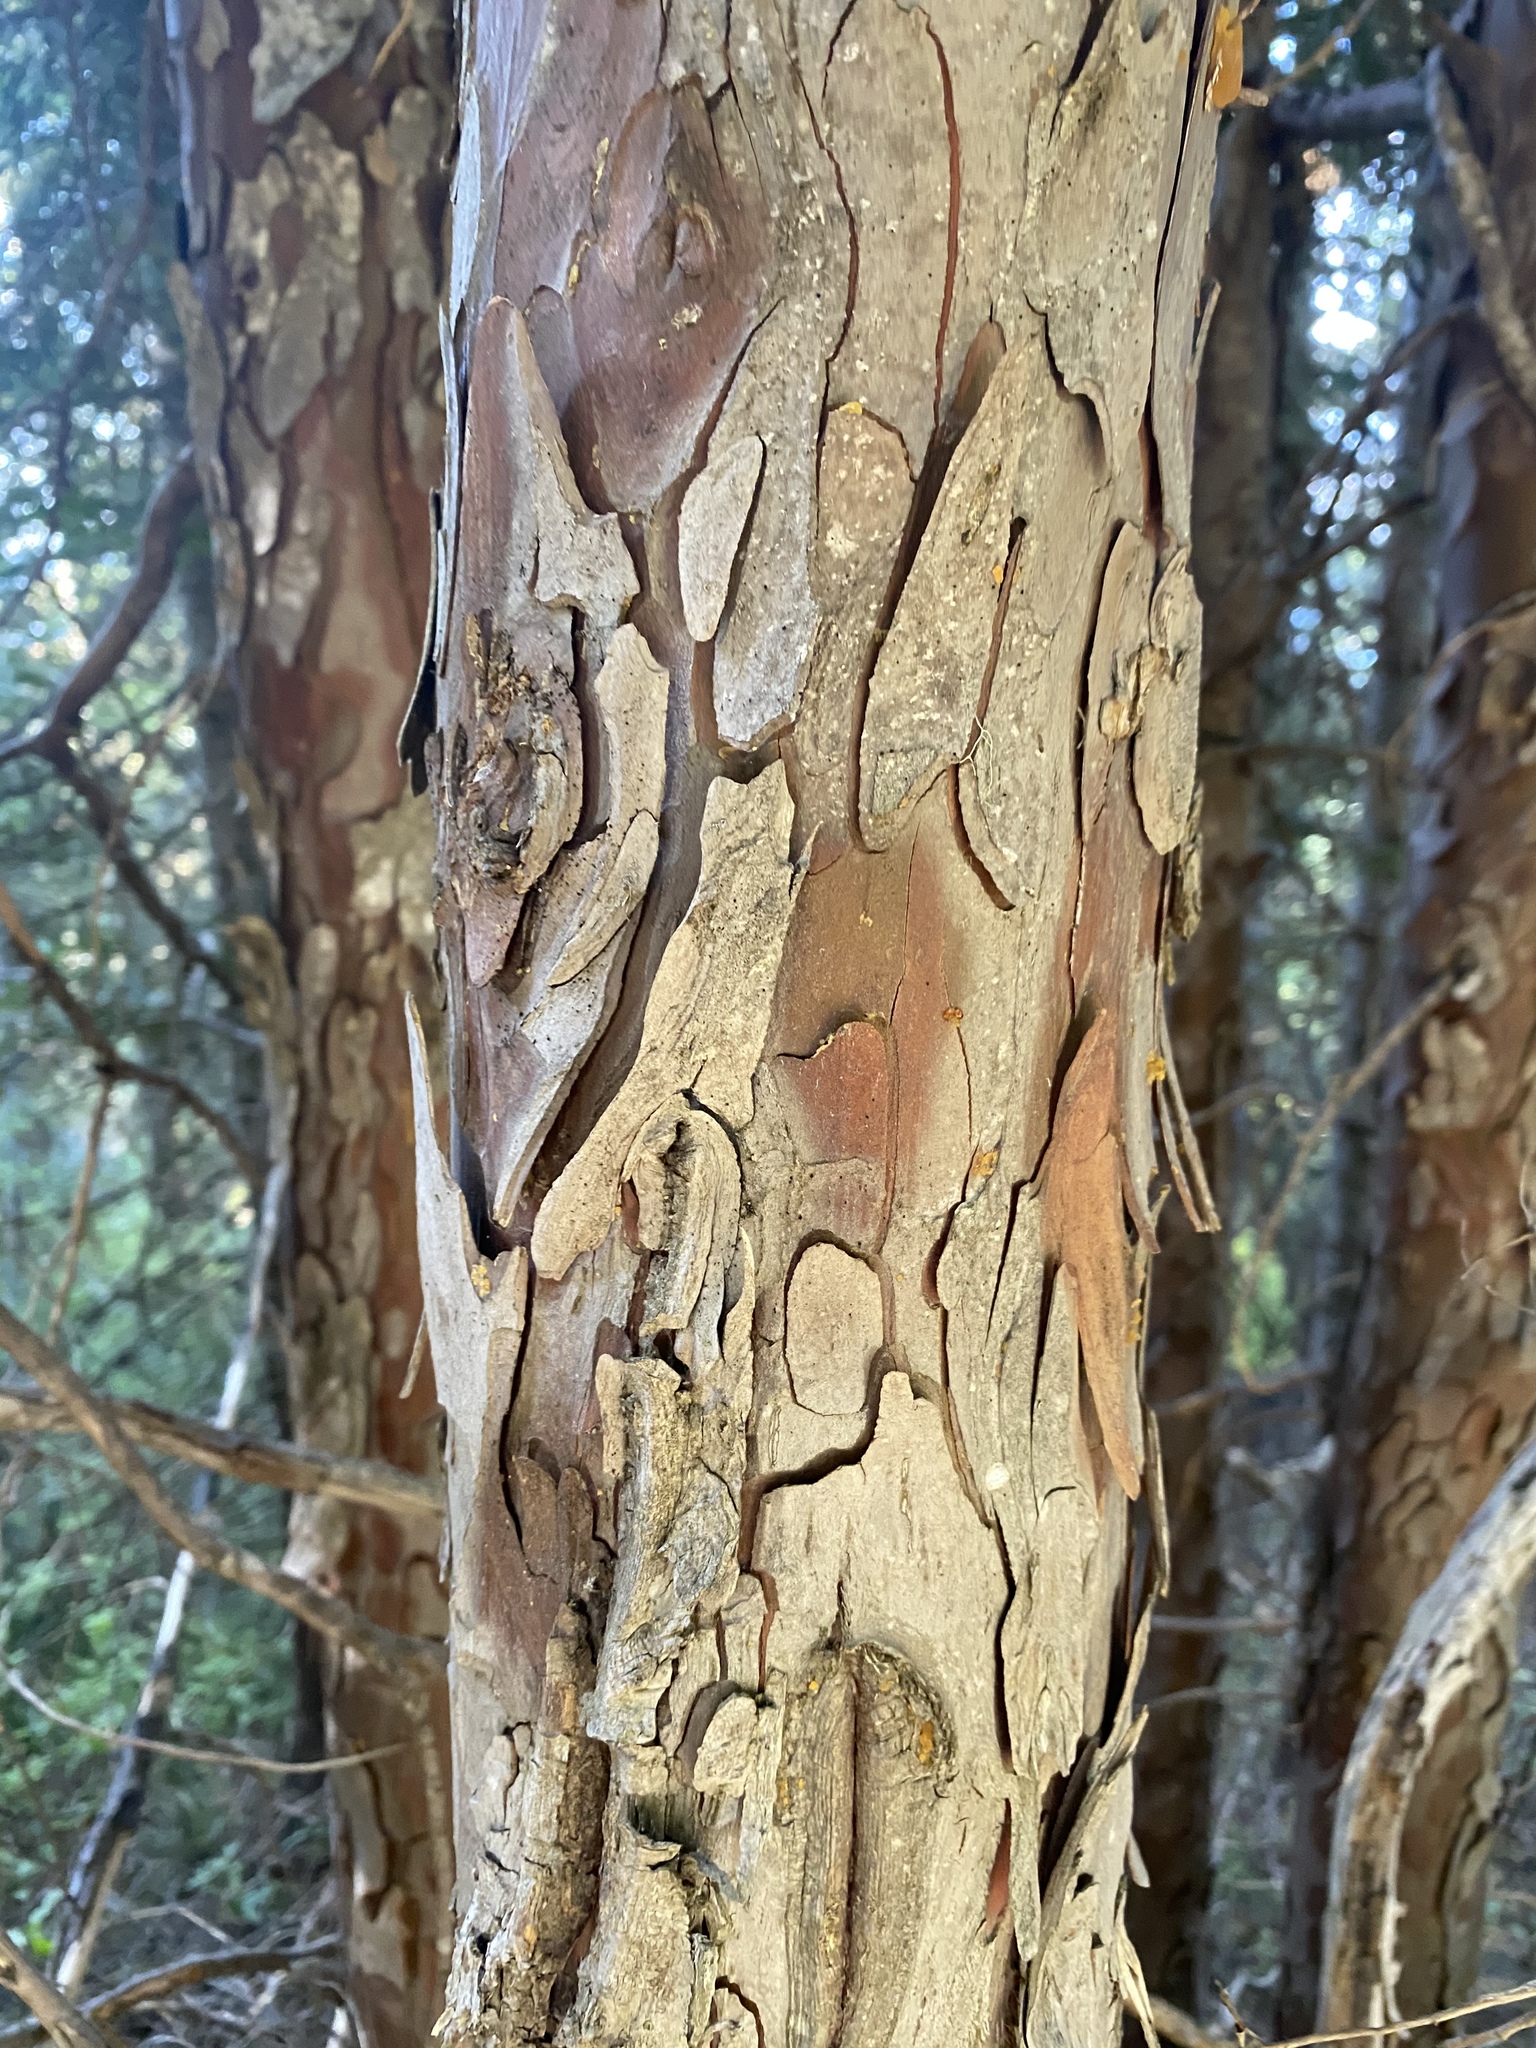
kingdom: Plantae
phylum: Tracheophyta
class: Pinopsida
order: Pinales
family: Cupressaceae
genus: Xanthocyparis
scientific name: Xanthocyparis nootkatensis
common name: Nootka cypress
